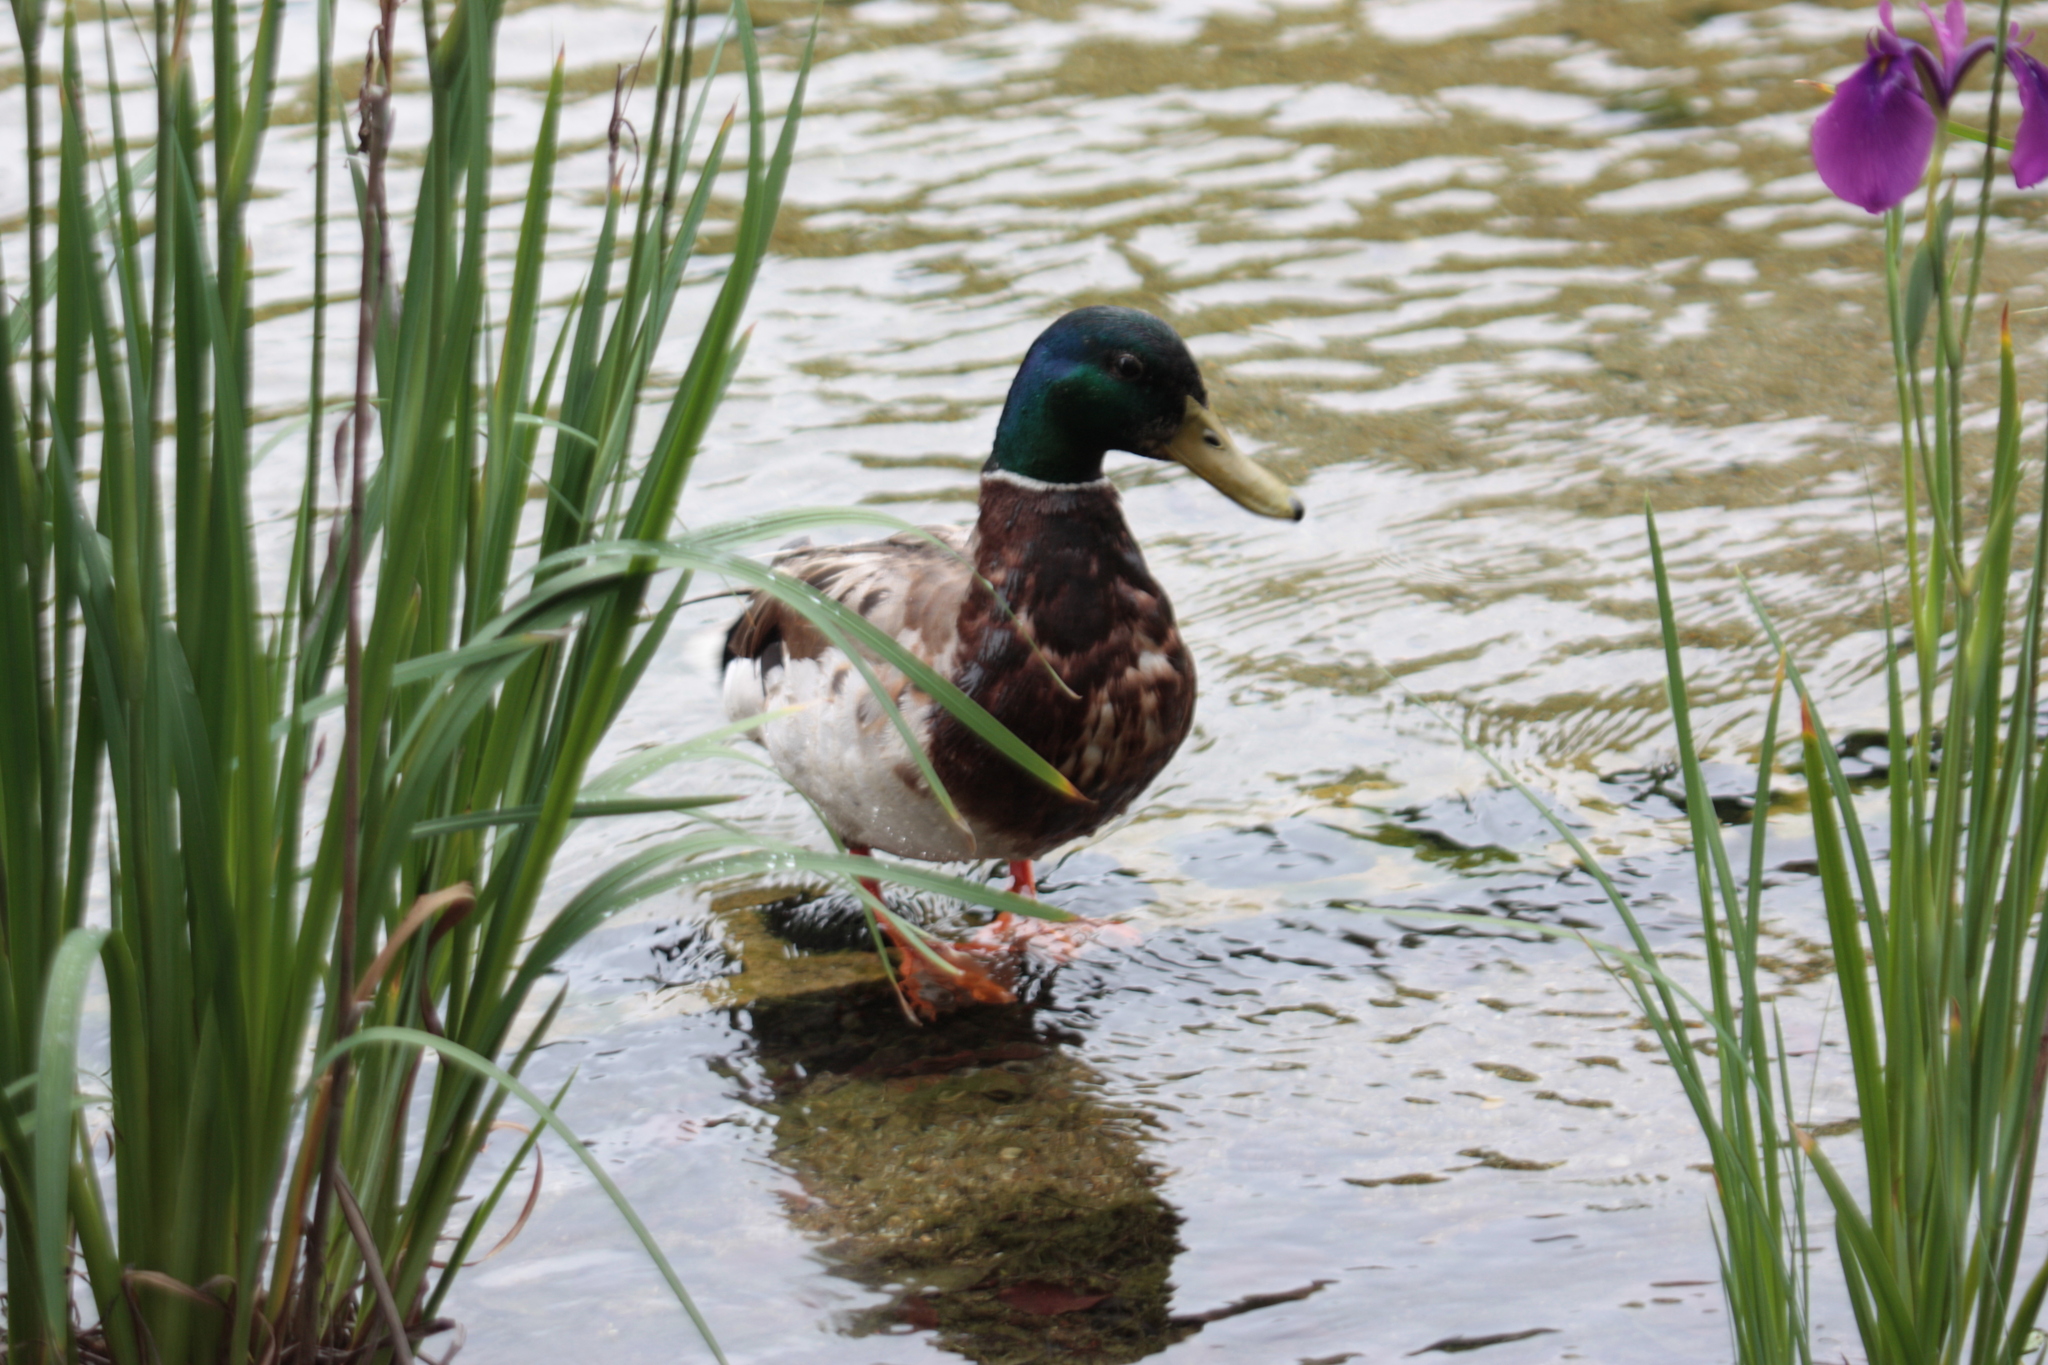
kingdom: Animalia
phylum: Chordata
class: Aves
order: Anseriformes
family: Anatidae
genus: Anas
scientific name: Anas platyrhynchos
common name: Mallard
